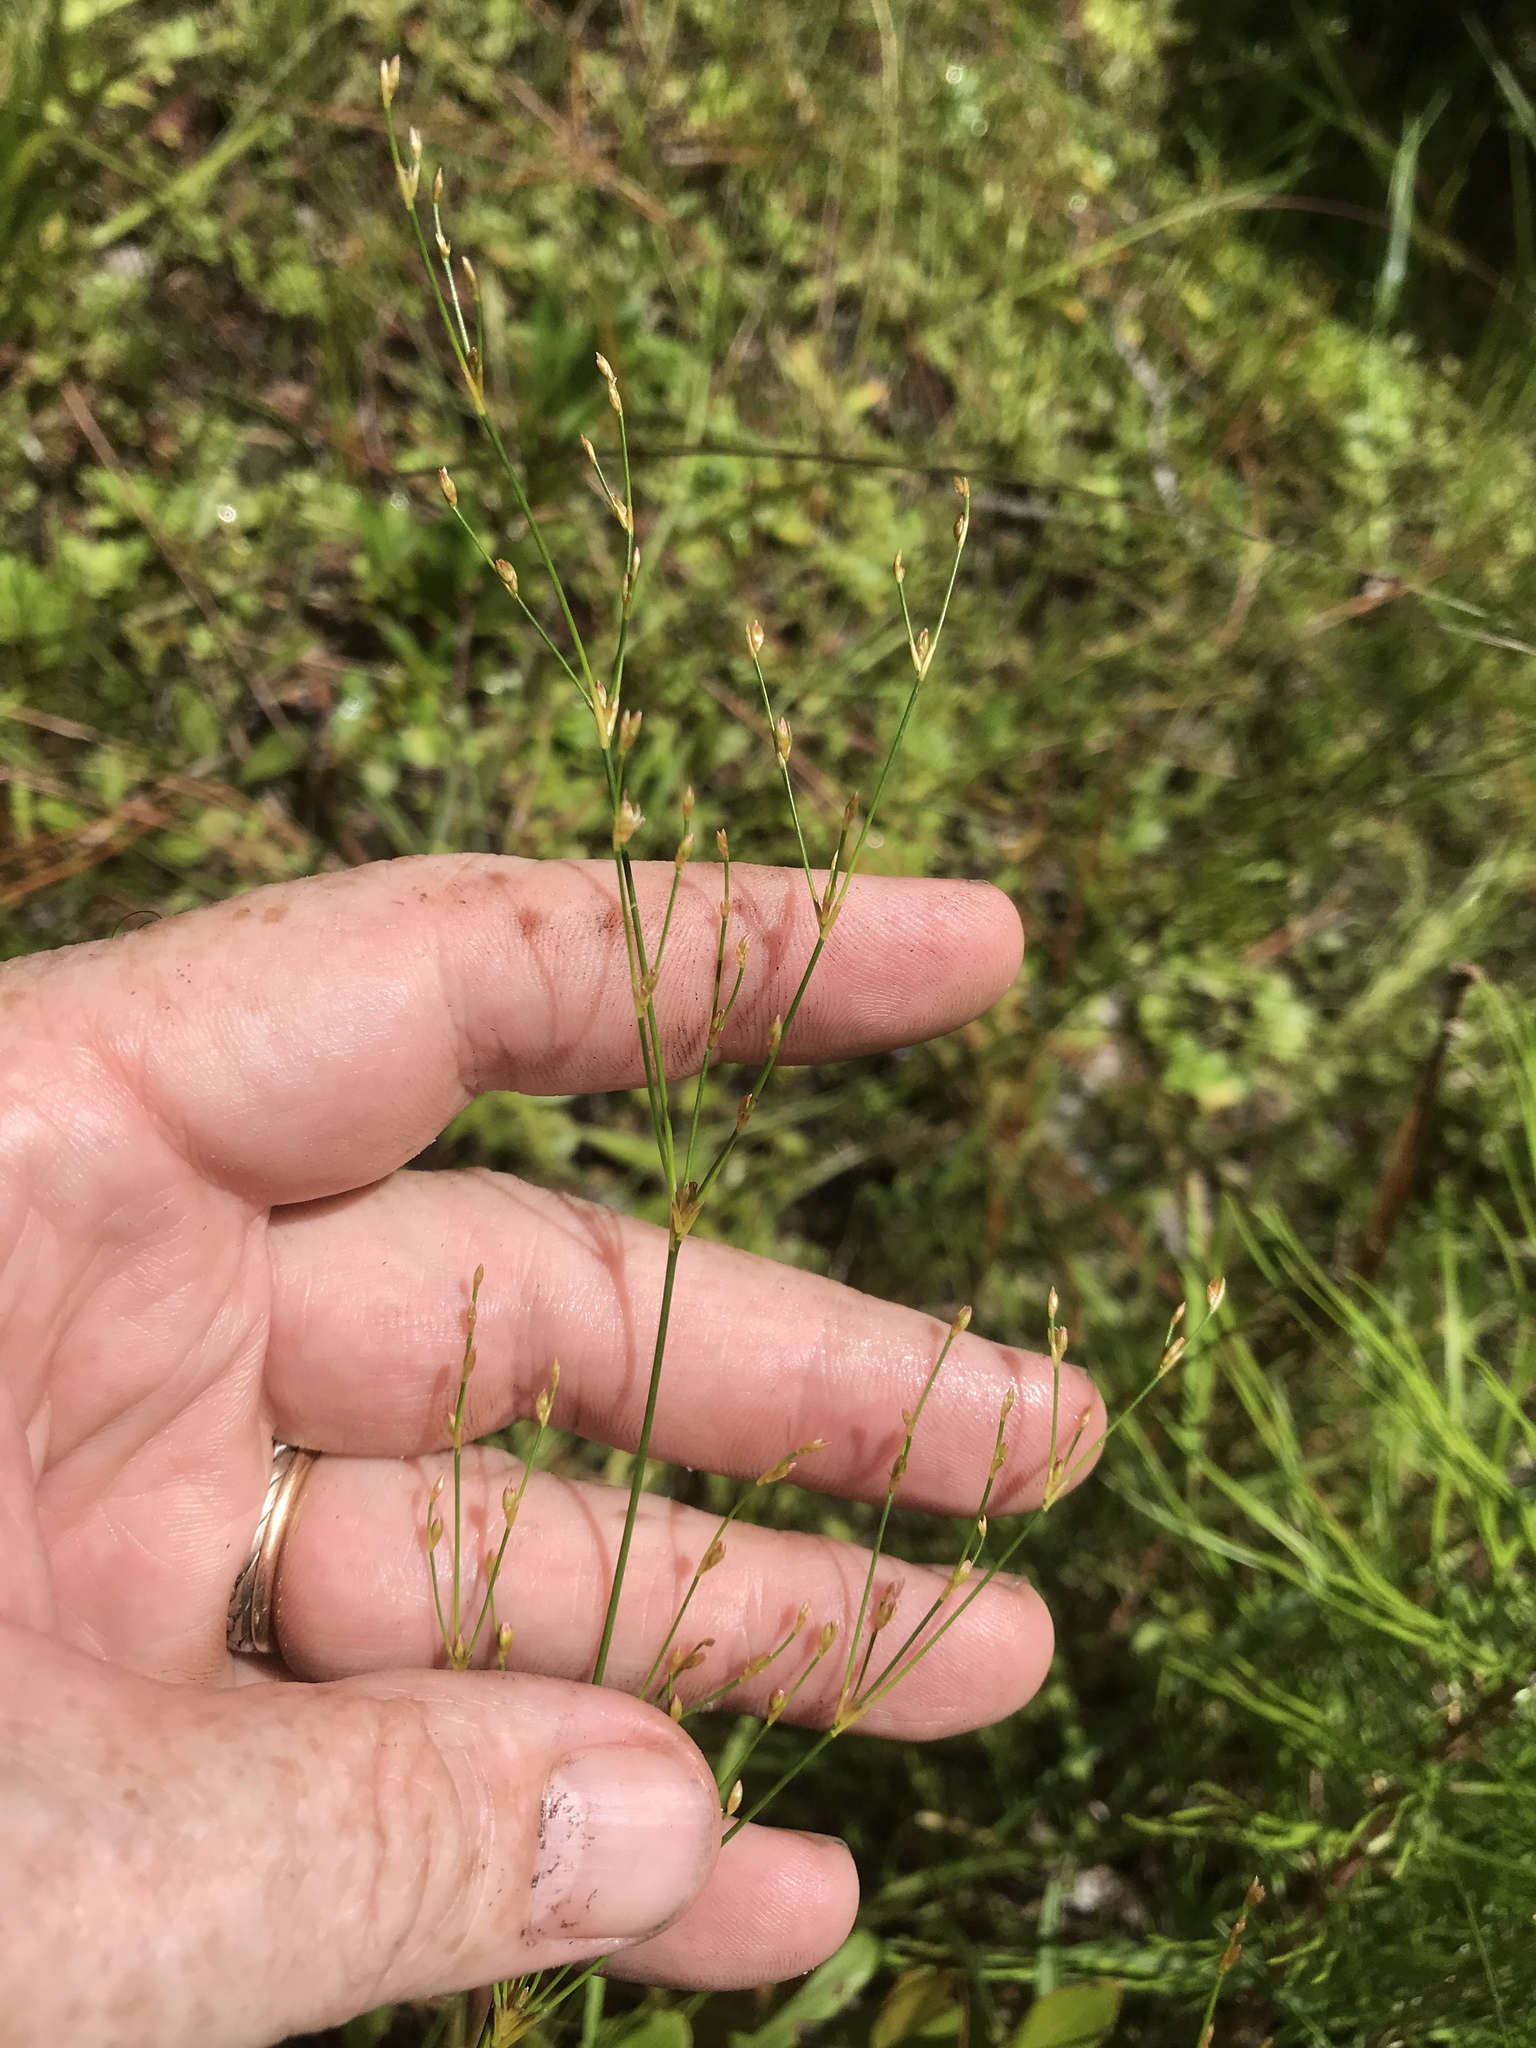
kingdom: Plantae
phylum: Tracheophyta
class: Liliopsida
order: Poales
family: Juncaceae
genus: Juncus
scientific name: Juncus pelocarpus
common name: Brown-fruited rush
